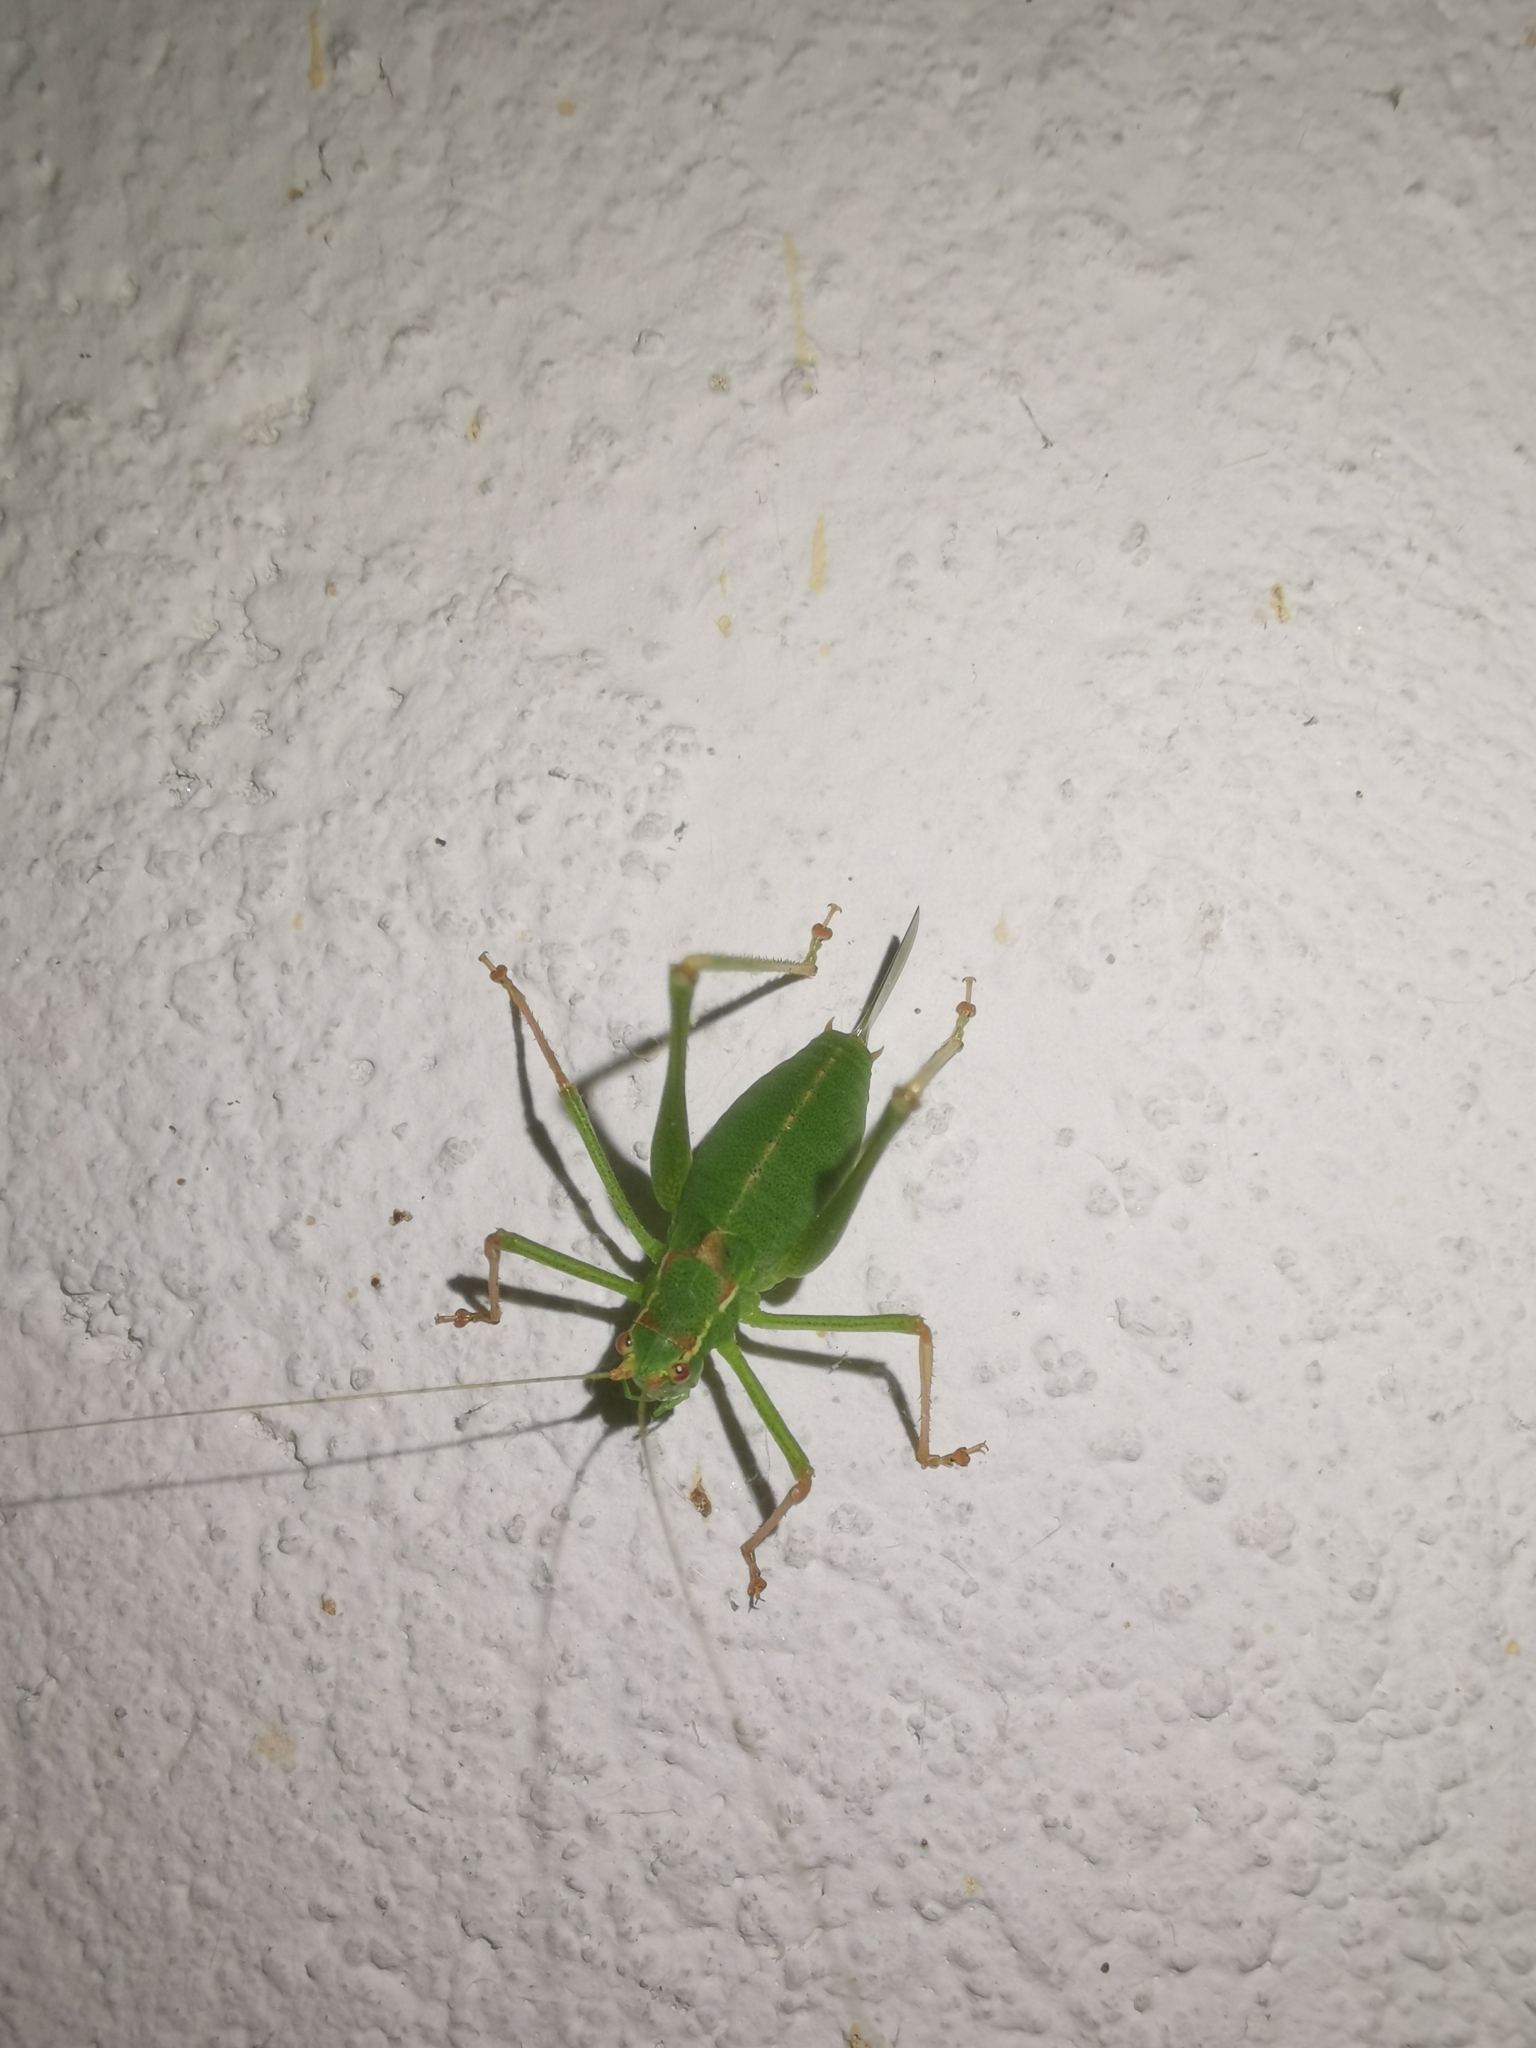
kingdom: Animalia
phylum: Arthropoda
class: Insecta
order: Orthoptera
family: Tettigoniidae
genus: Leptophyes
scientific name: Leptophyes punctatissima
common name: Speckled bush-cricket
